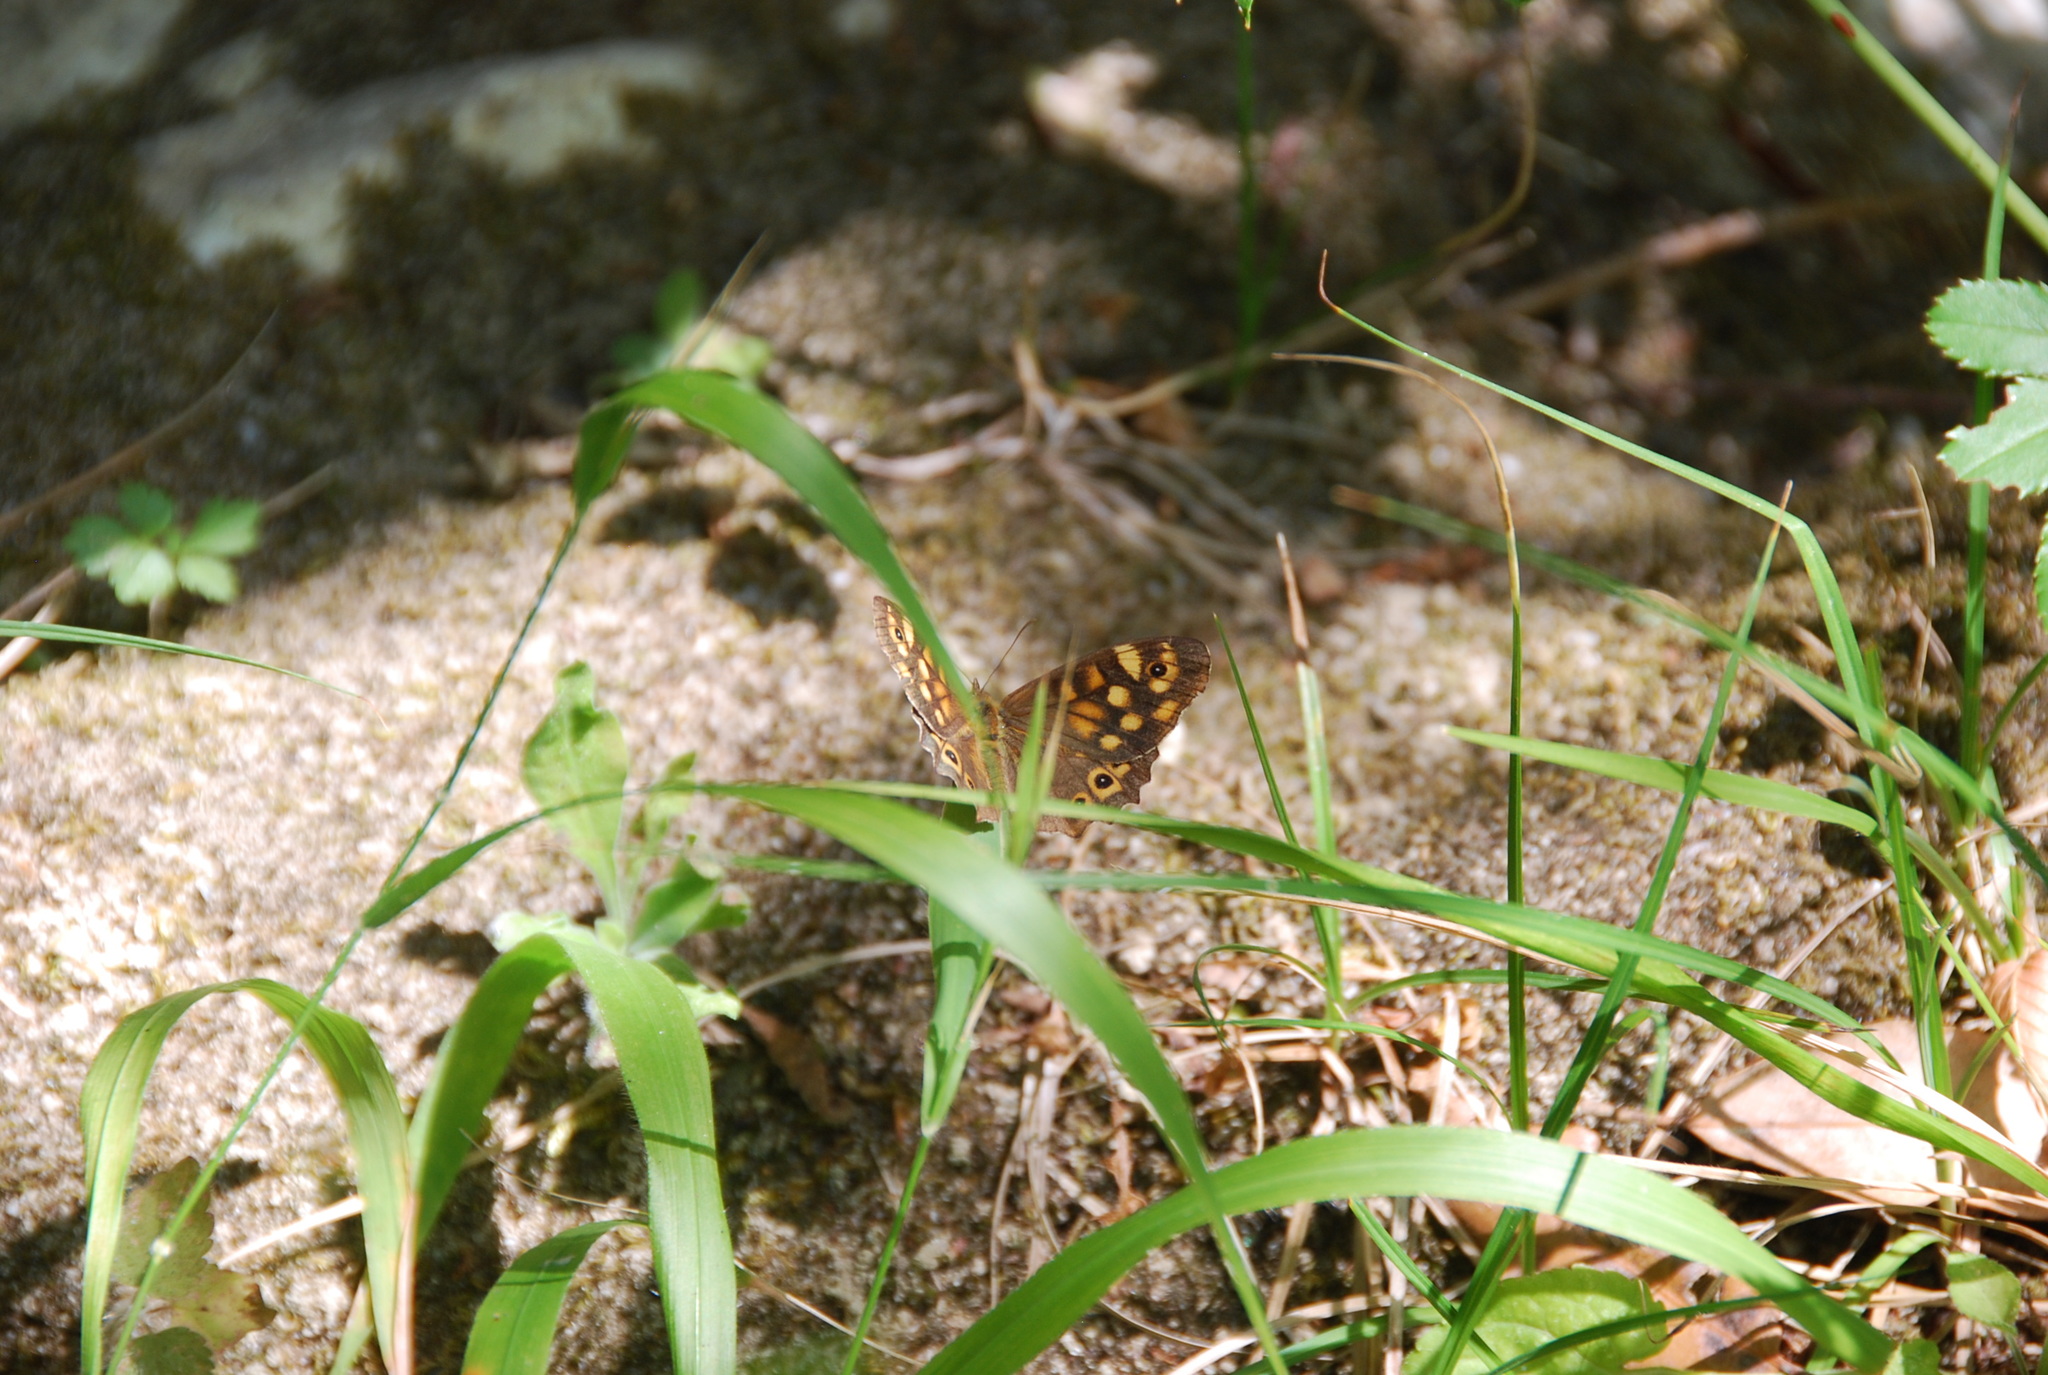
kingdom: Animalia
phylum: Arthropoda
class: Insecta
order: Lepidoptera
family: Nymphalidae
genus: Pararge
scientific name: Pararge aegeria
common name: Speckled wood
